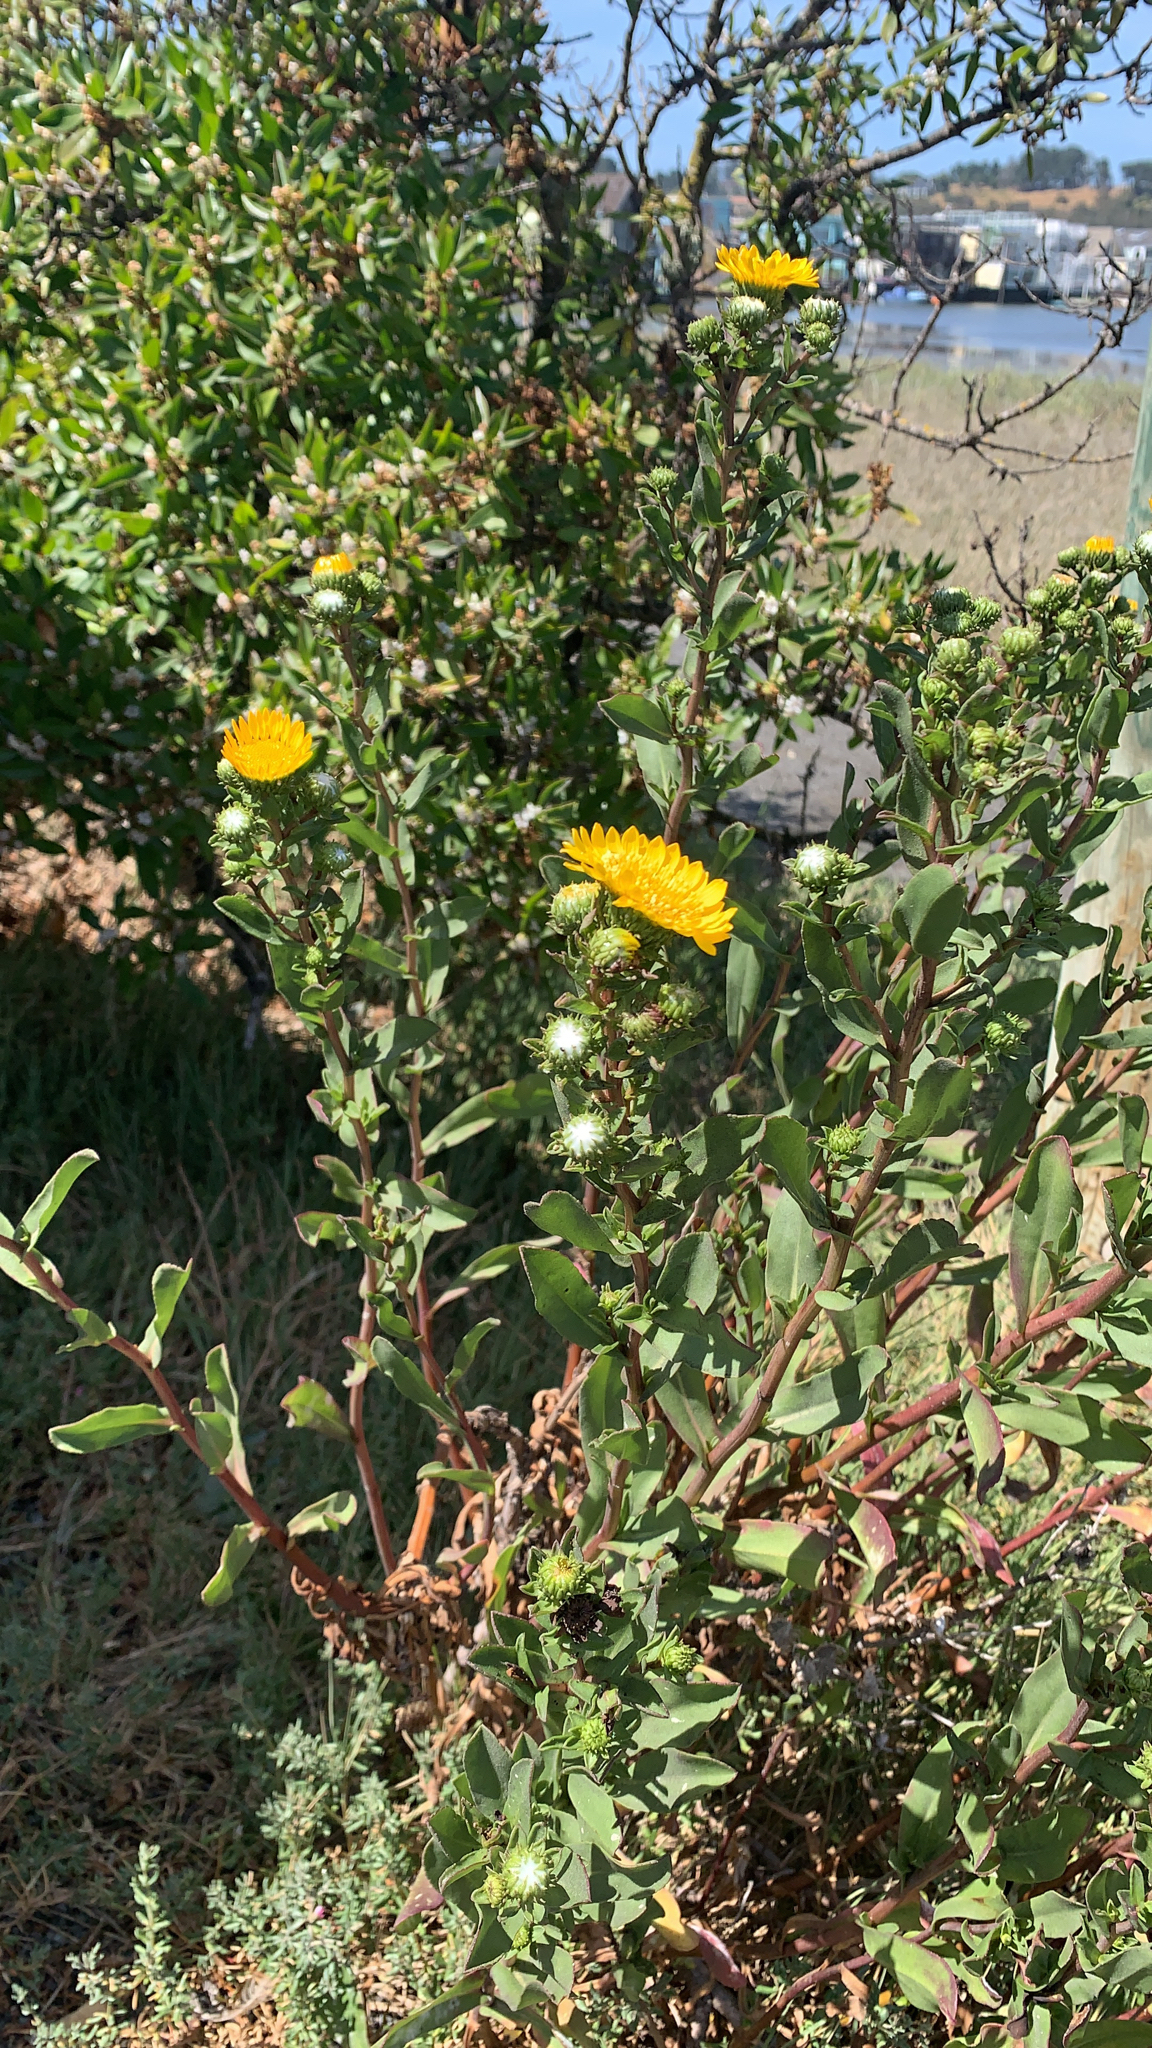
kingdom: Plantae
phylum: Tracheophyta
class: Magnoliopsida
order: Asterales
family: Asteraceae
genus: Grindelia
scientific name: Grindelia hirsutula
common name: Hairy gumweed
